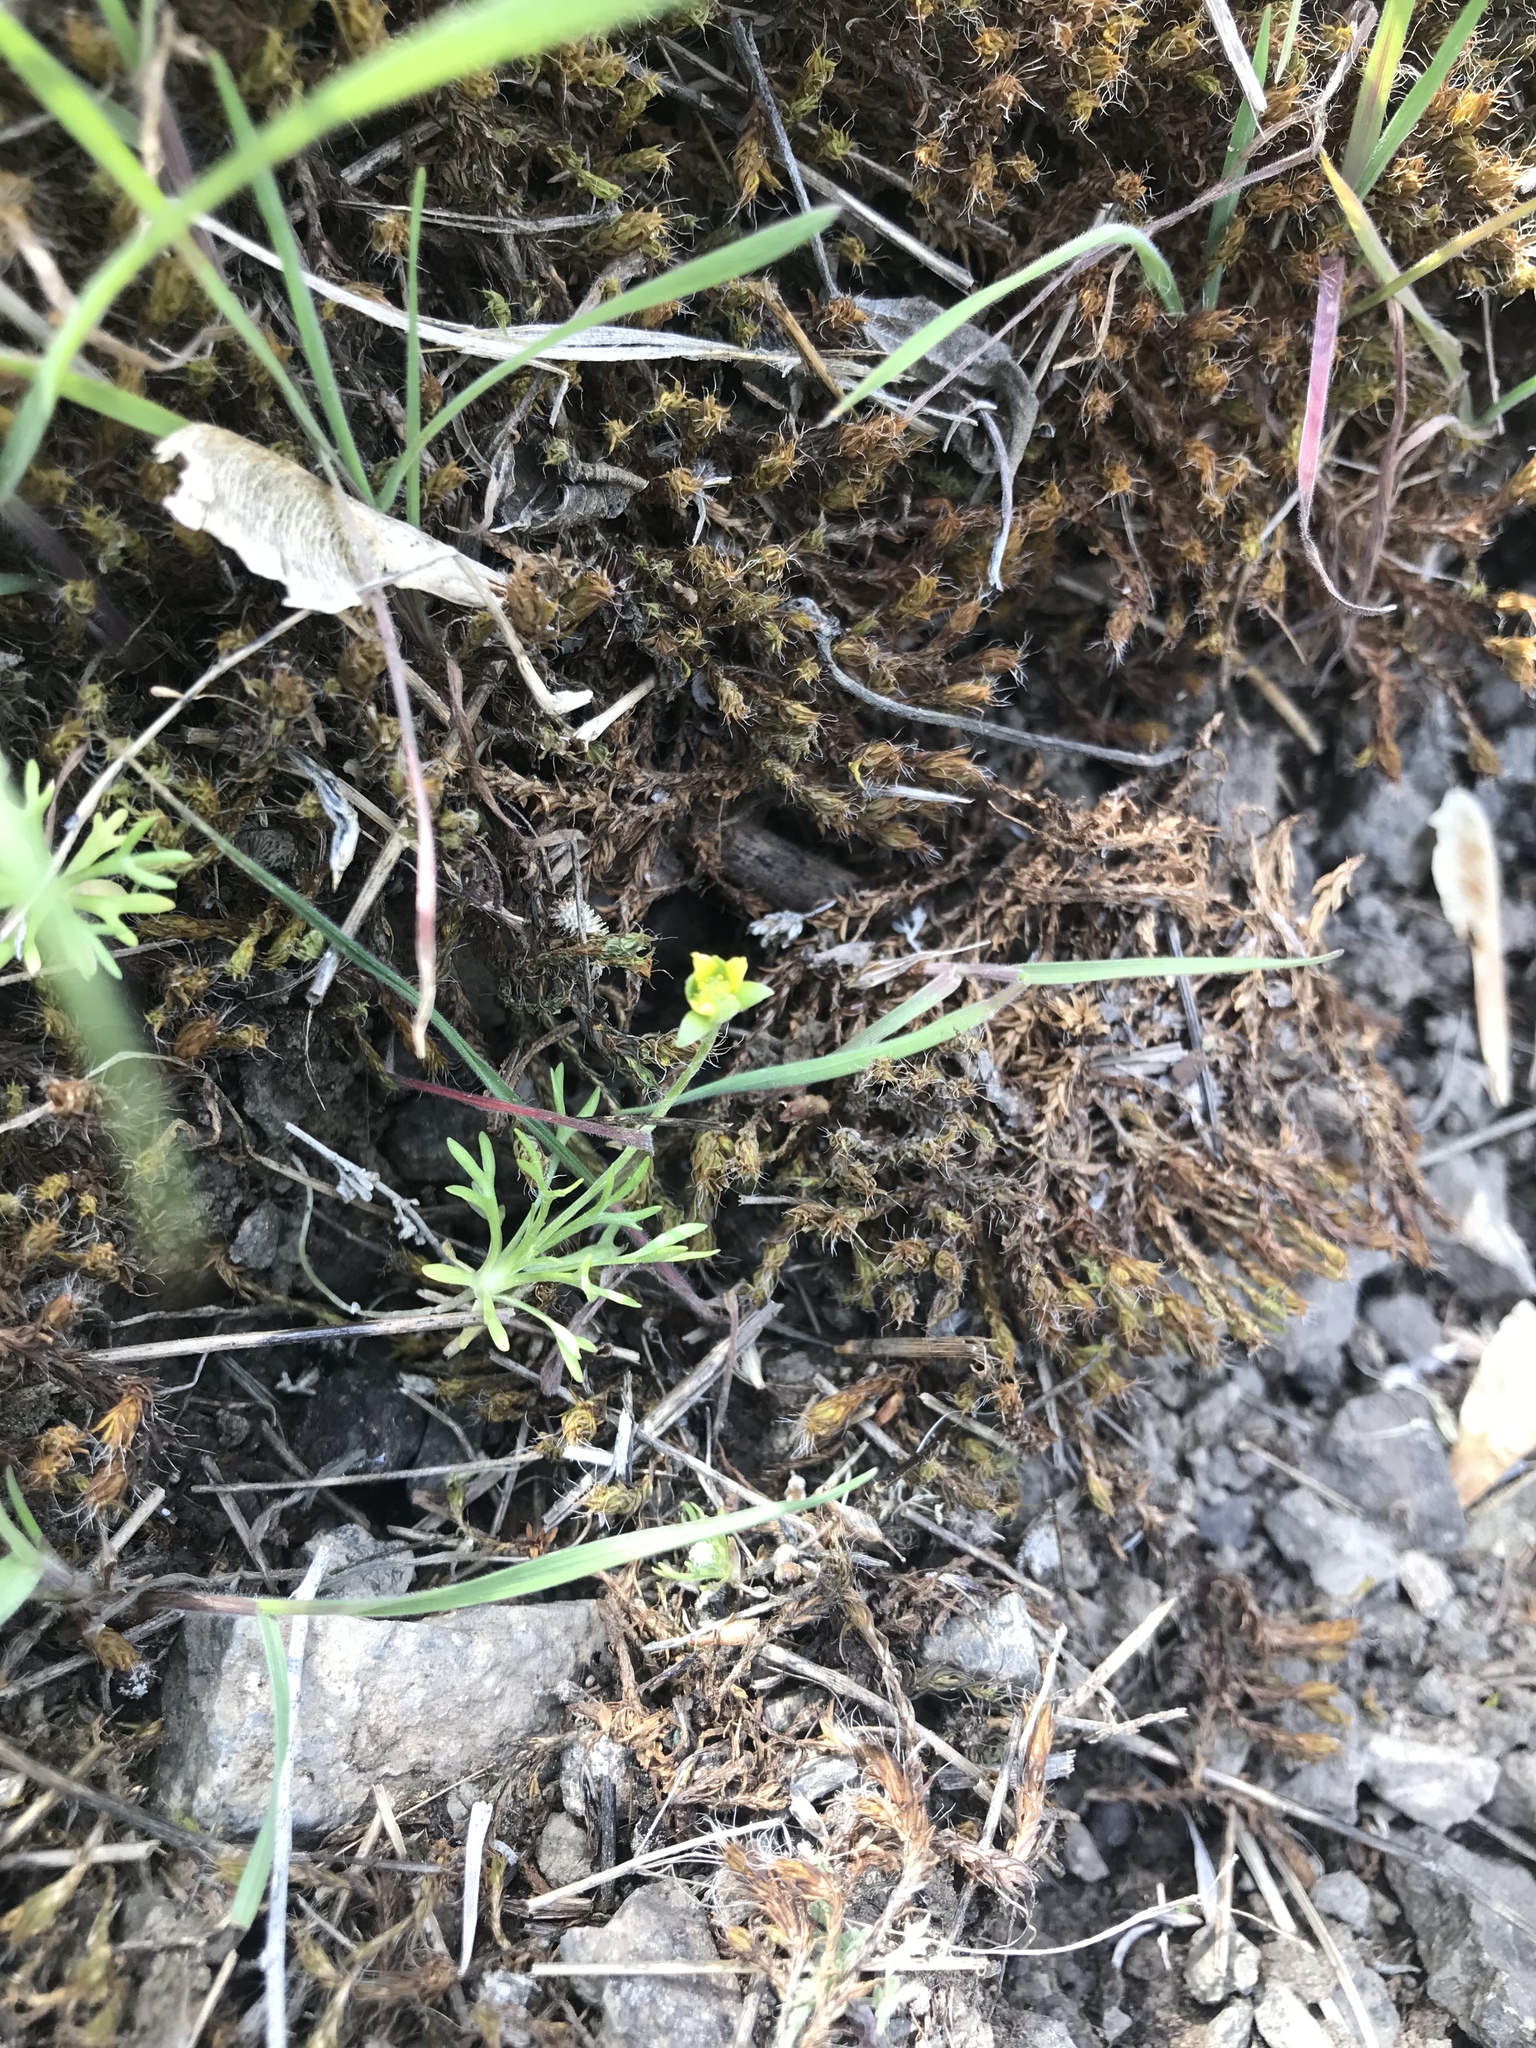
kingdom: Plantae
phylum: Tracheophyta
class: Magnoliopsida
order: Ranunculales
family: Ranunculaceae
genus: Ceratocephala
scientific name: Ceratocephala orthoceras
